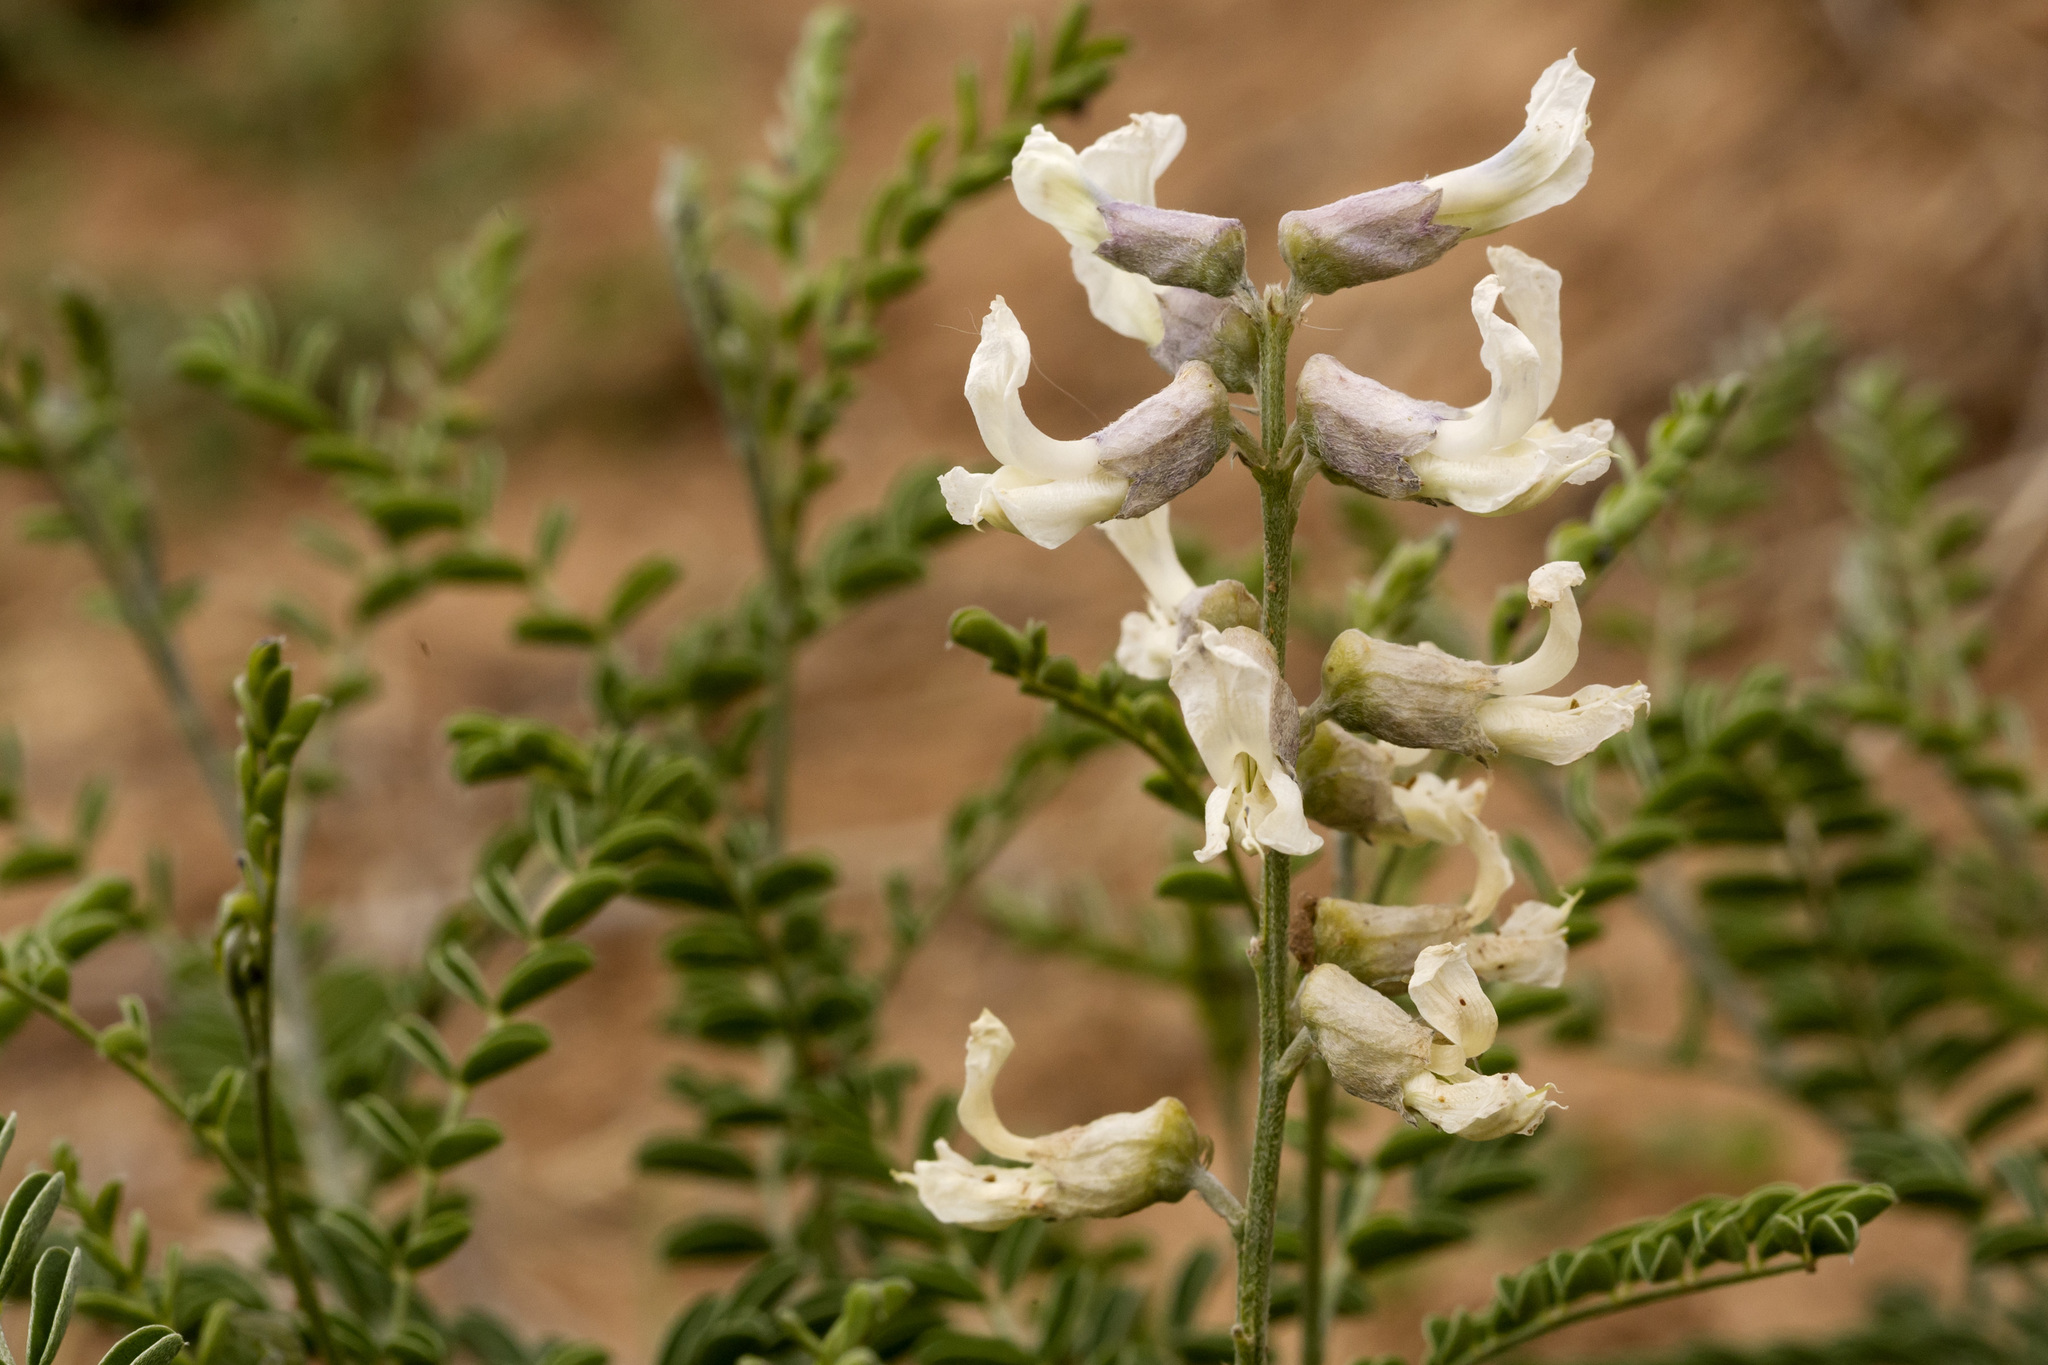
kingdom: Plantae
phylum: Tracheophyta
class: Magnoliopsida
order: Fabales
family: Fabaceae
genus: Sophora
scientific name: Sophora nuttalliana
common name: Silky sophora
